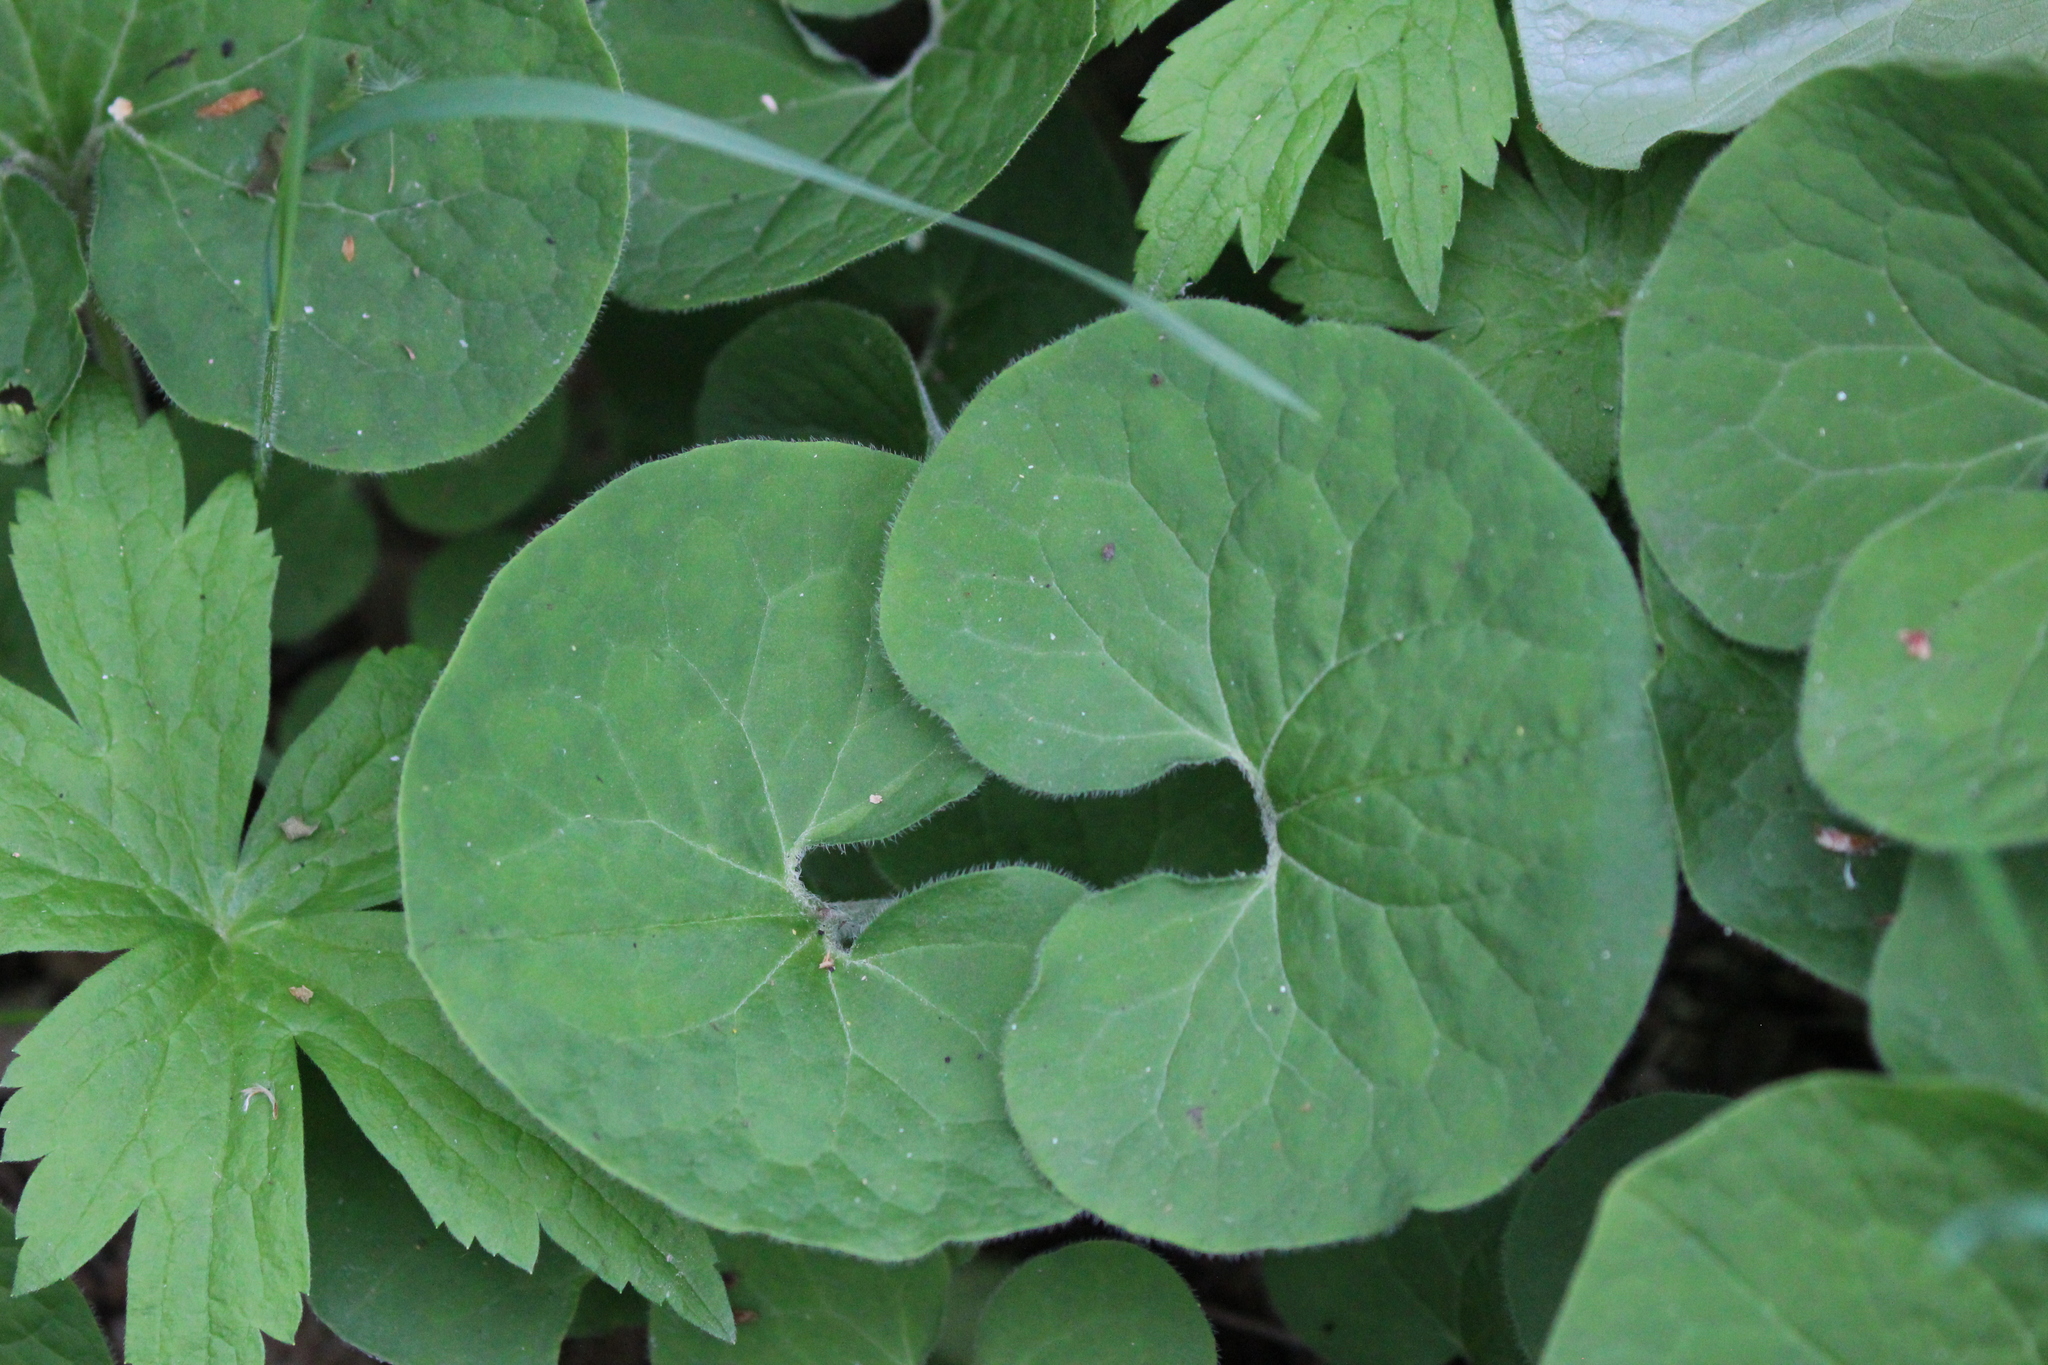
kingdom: Plantae
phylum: Tracheophyta
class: Magnoliopsida
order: Piperales
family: Aristolochiaceae
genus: Asarum
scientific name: Asarum canadense
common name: Wild ginger
